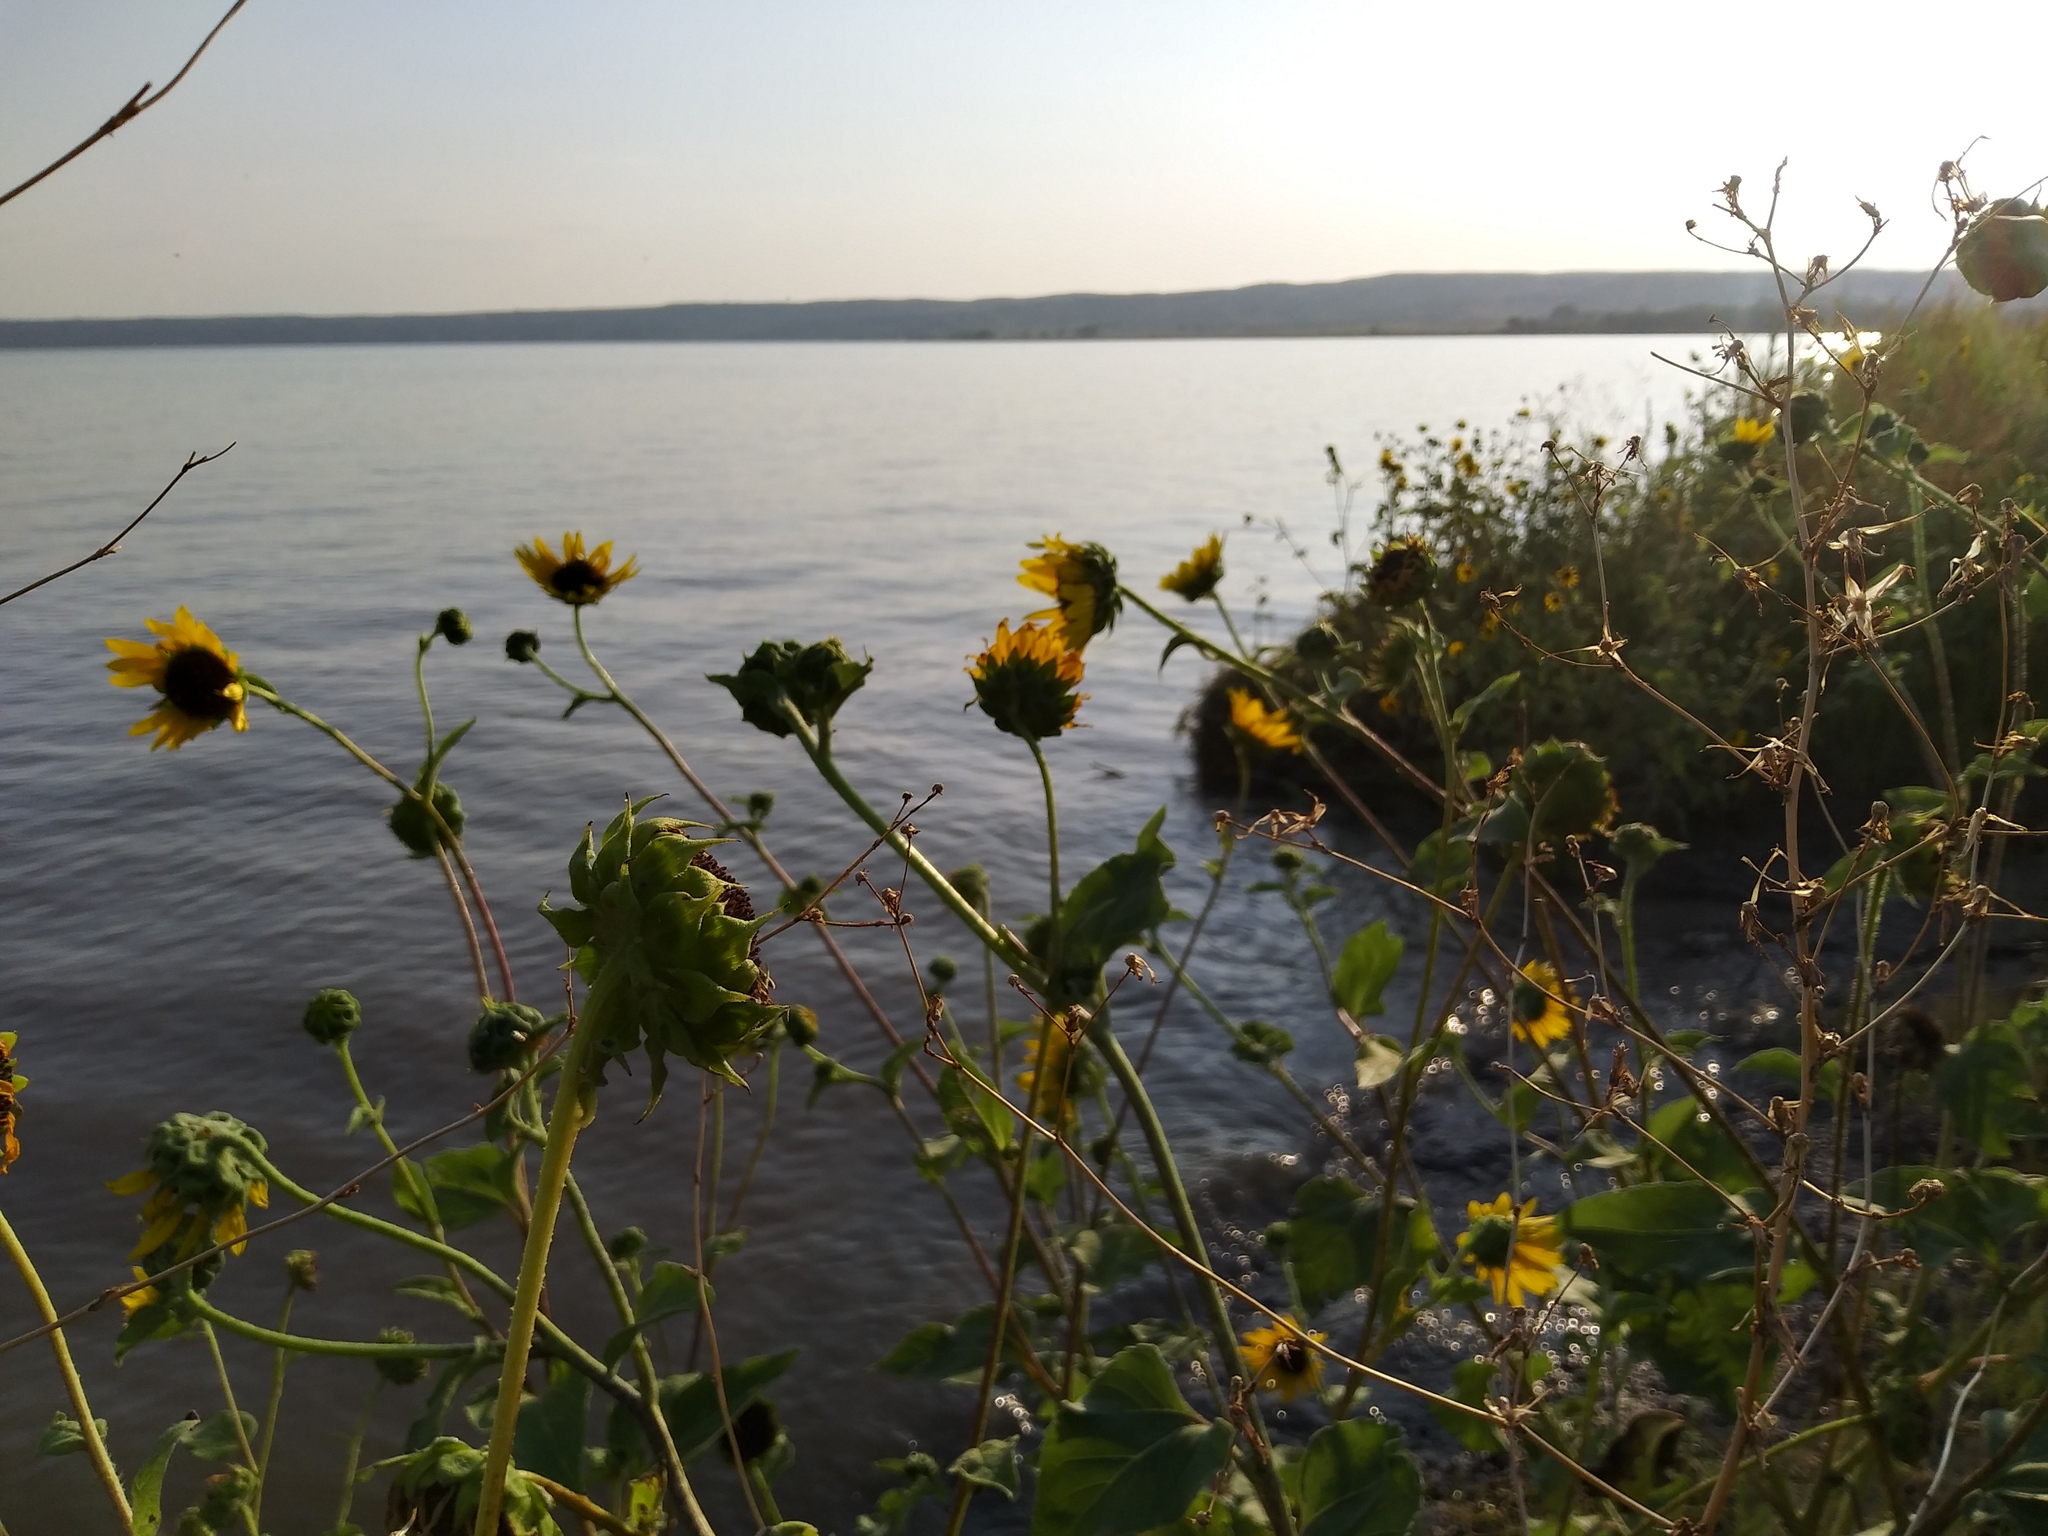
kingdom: Plantae
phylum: Tracheophyta
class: Magnoliopsida
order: Asterales
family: Asteraceae
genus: Helianthus
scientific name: Helianthus annuus
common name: Sunflower
